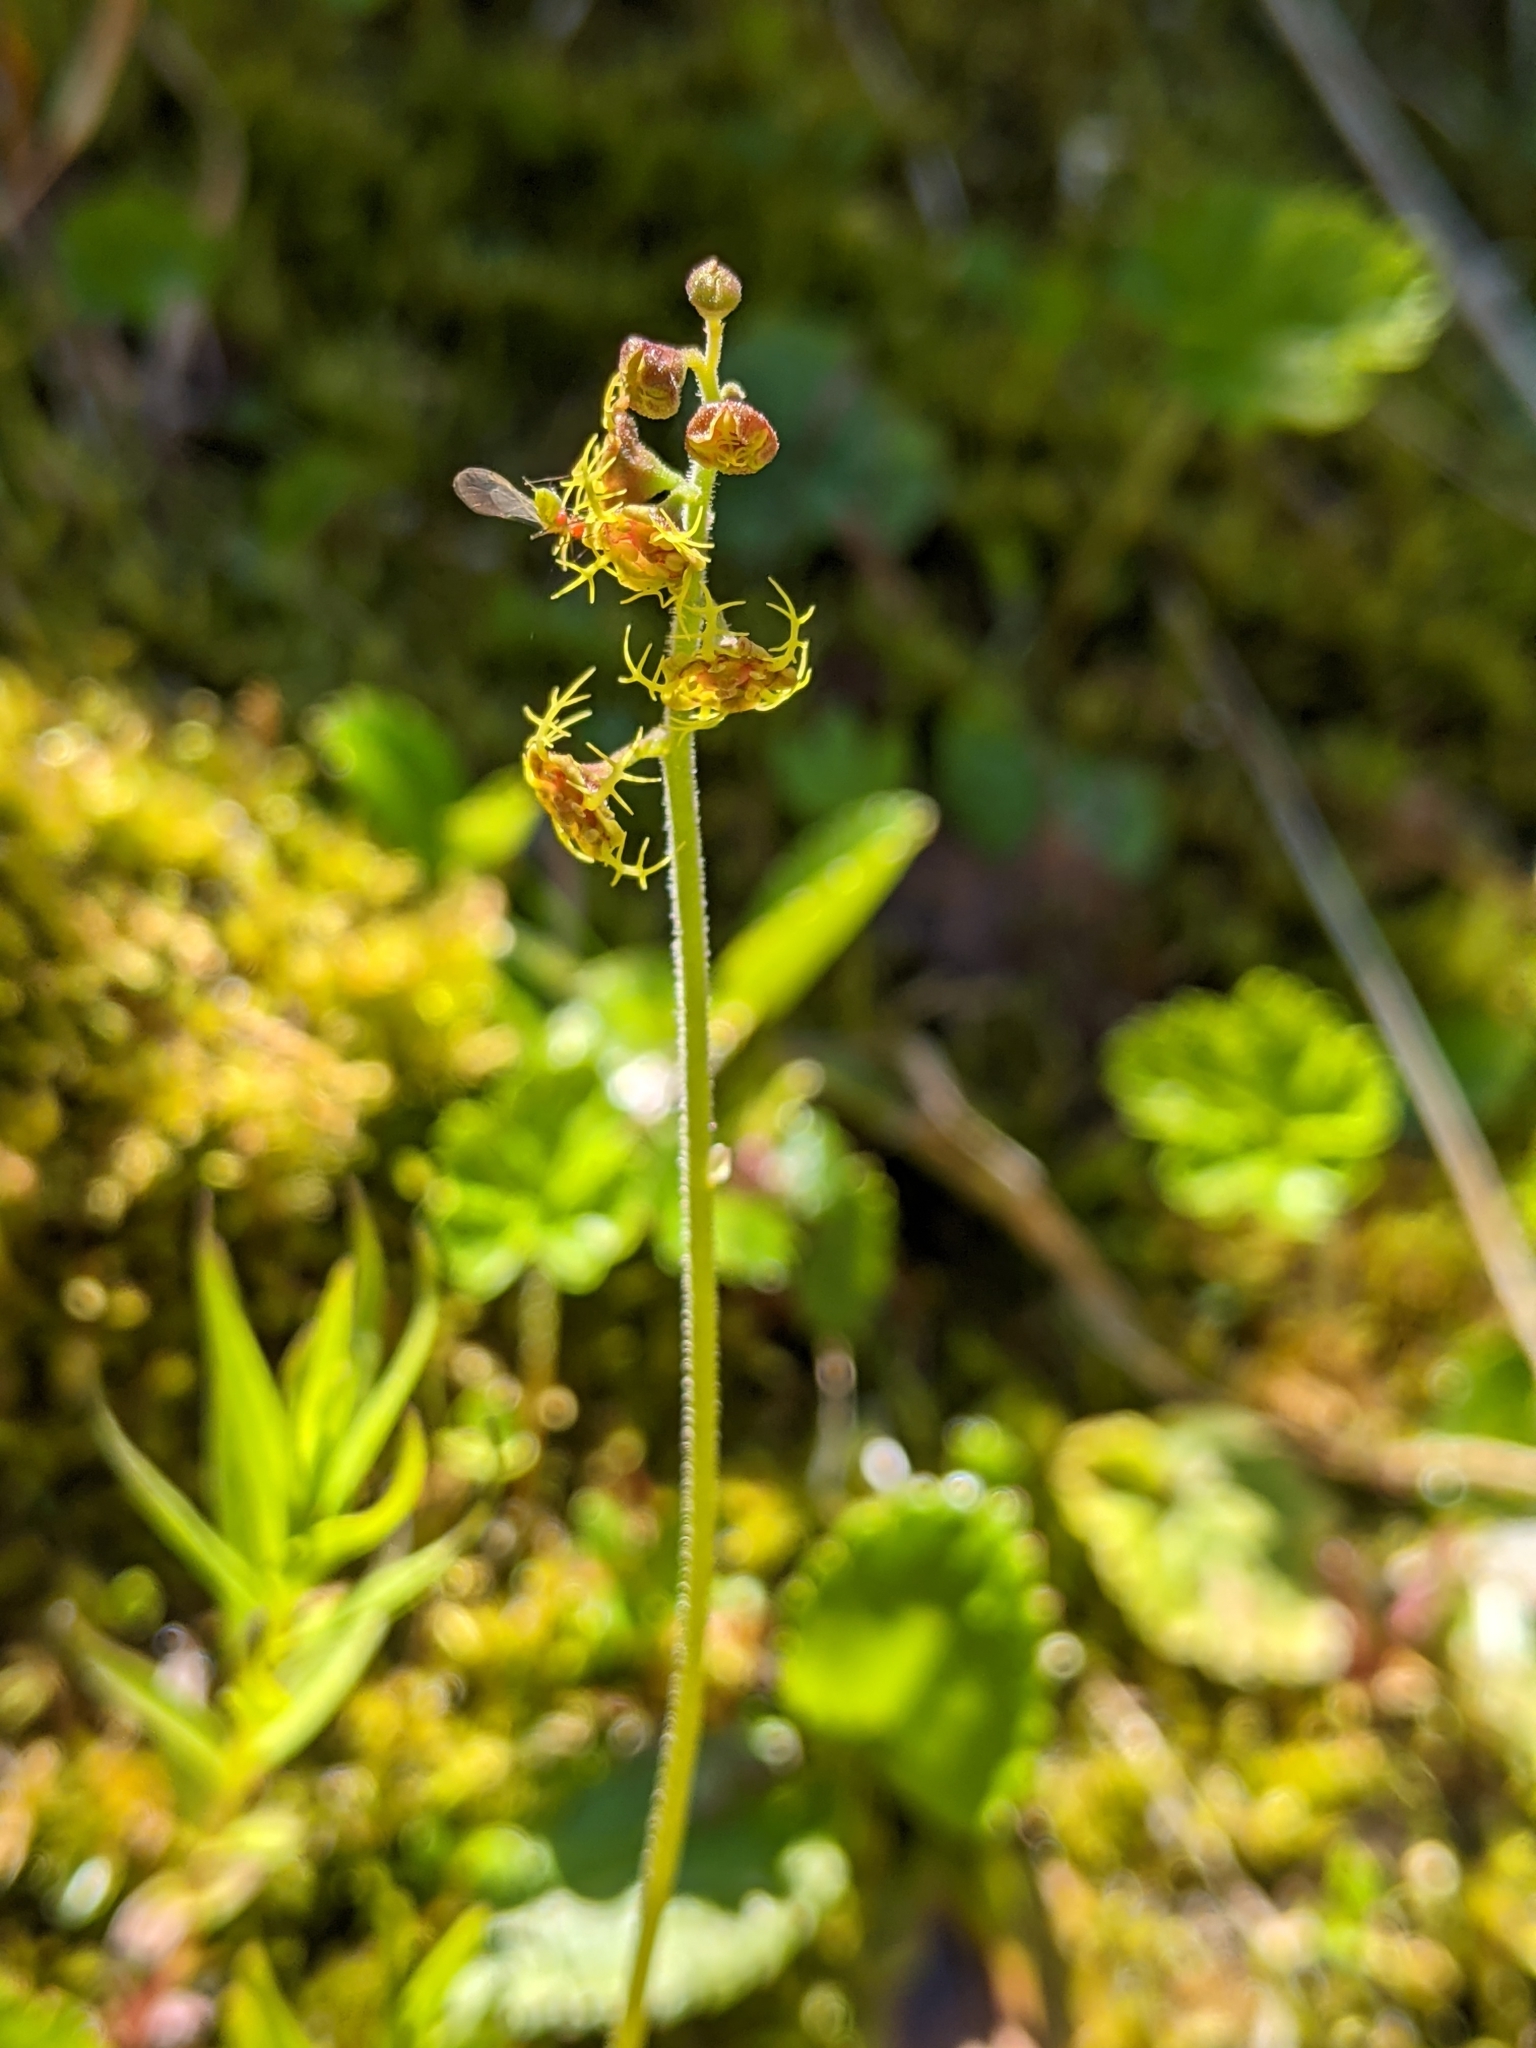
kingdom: Plantae
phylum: Tracheophyta
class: Magnoliopsida
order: Saxifragales
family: Saxifragaceae
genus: Pectiantia
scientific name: Pectiantia pentandra
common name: Alpine bishop's-cap
